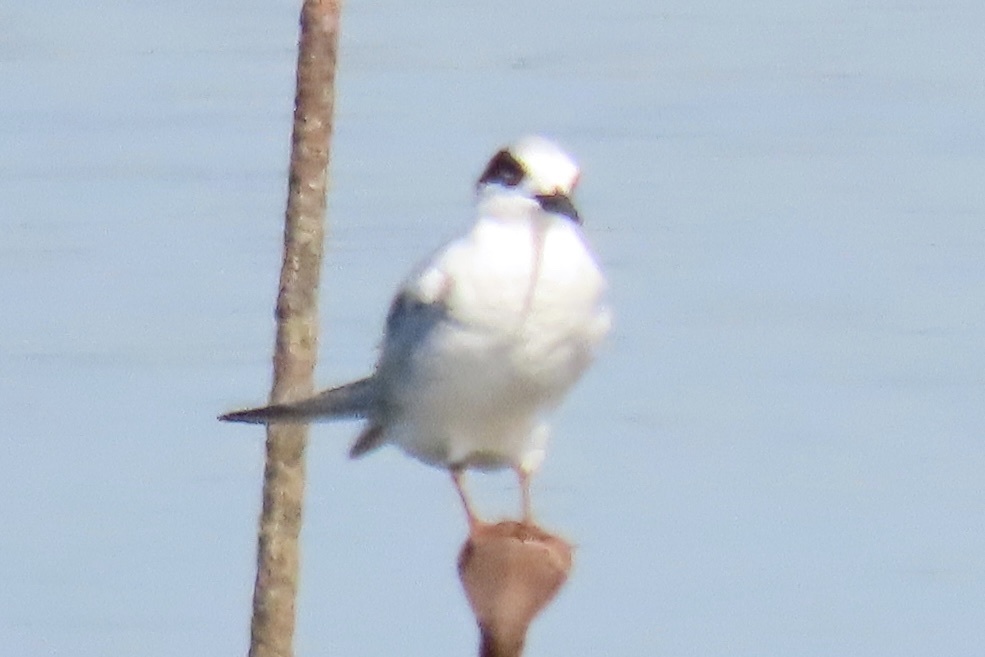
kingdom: Animalia
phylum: Chordata
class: Aves
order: Charadriiformes
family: Laridae
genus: Sterna
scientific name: Sterna forsteri
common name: Forster's tern
